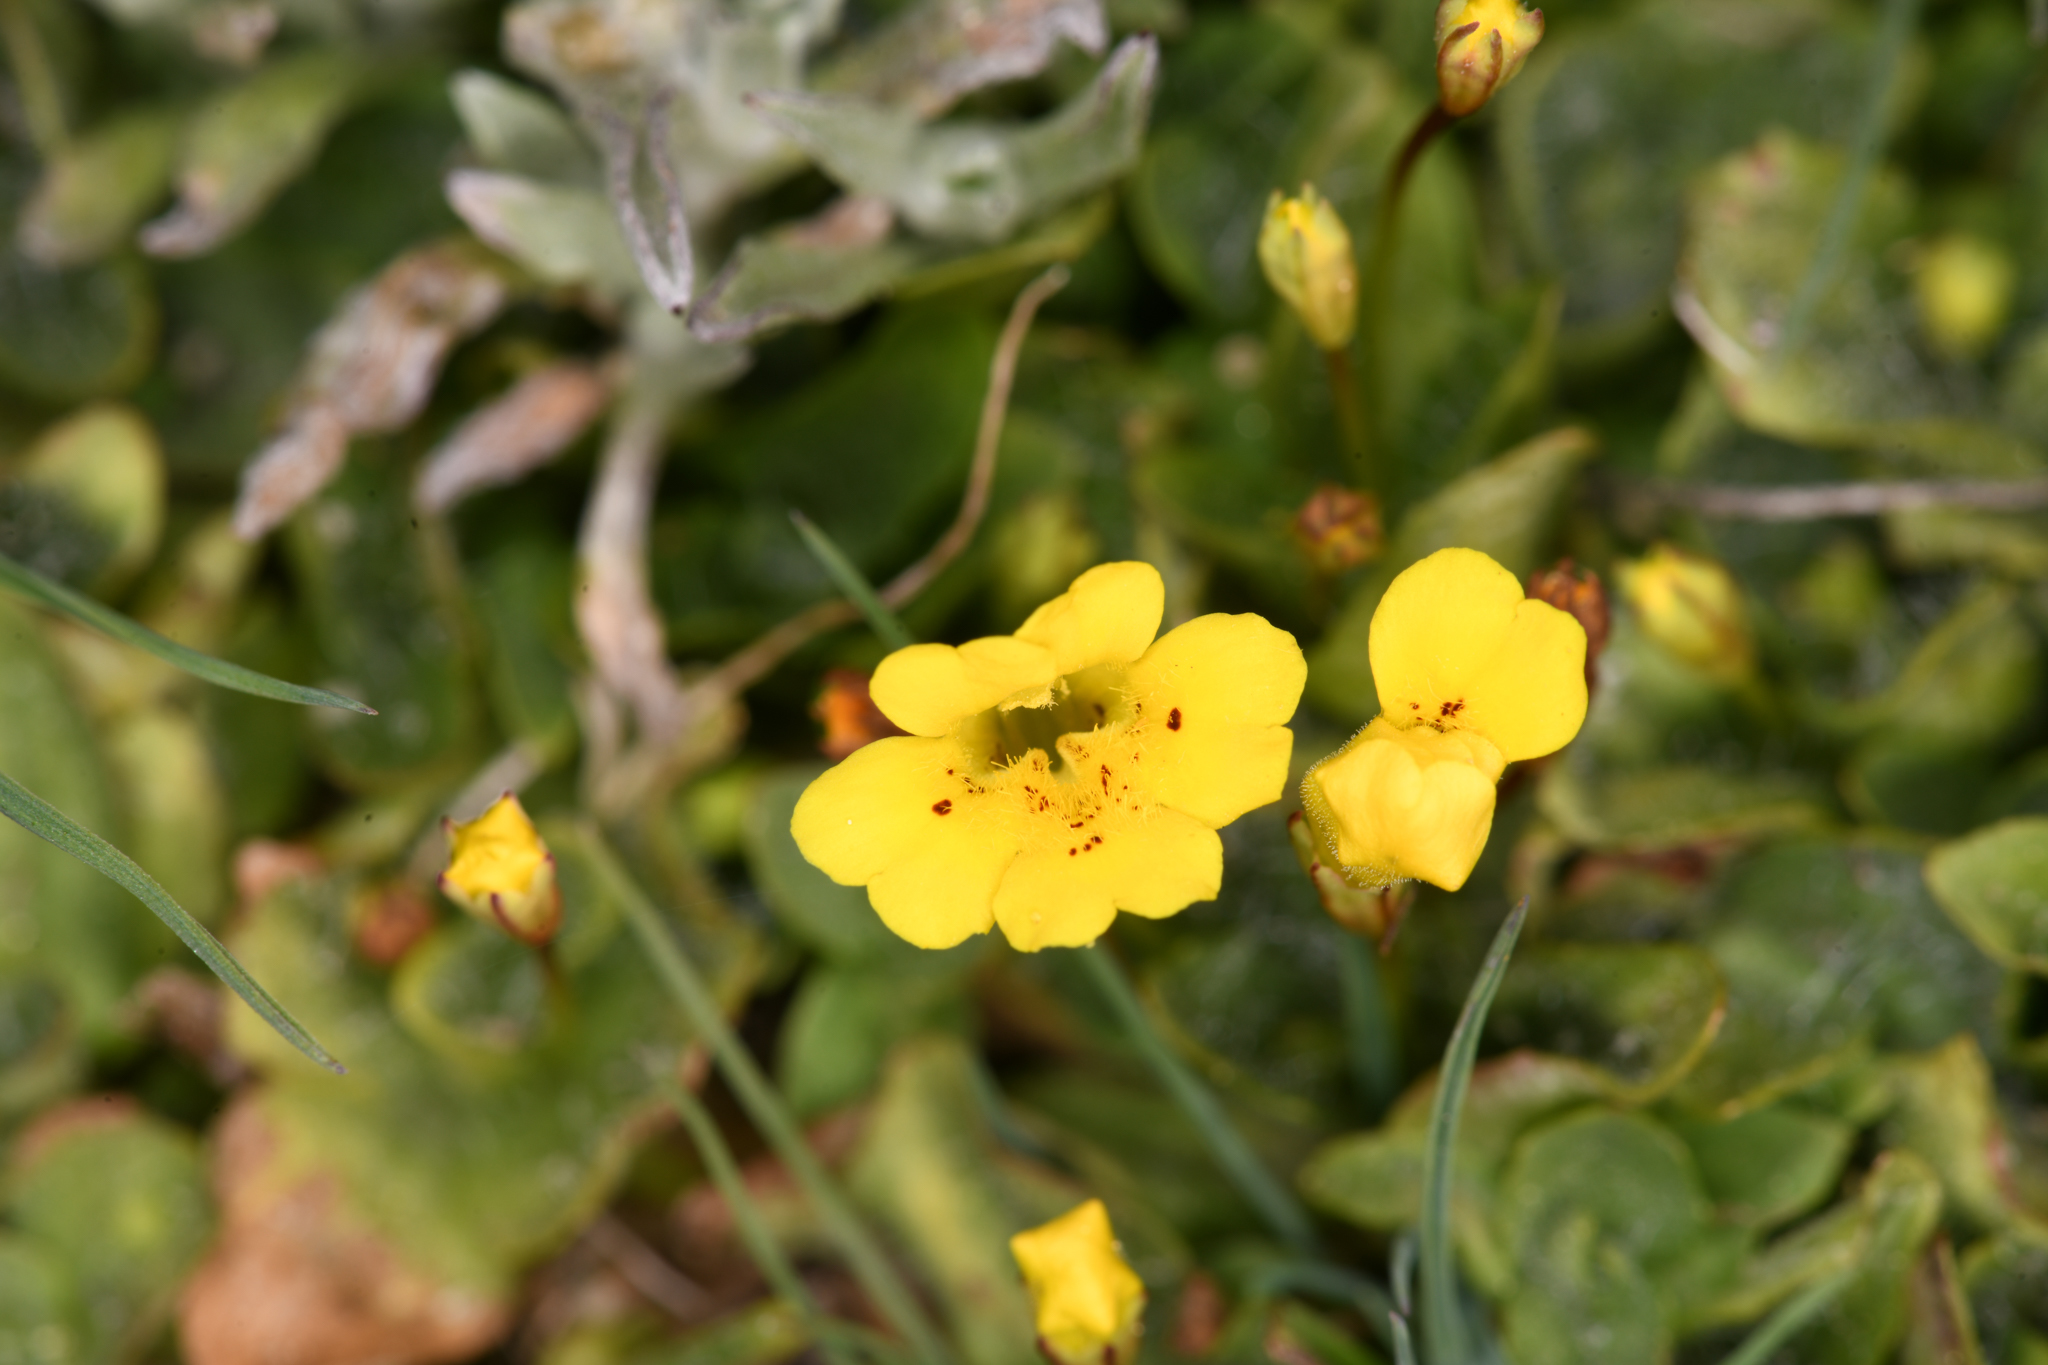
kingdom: Plantae
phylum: Tracheophyta
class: Magnoliopsida
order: Lamiales
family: Phrymaceae
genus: Erythranthe
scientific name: Erythranthe primuloides
